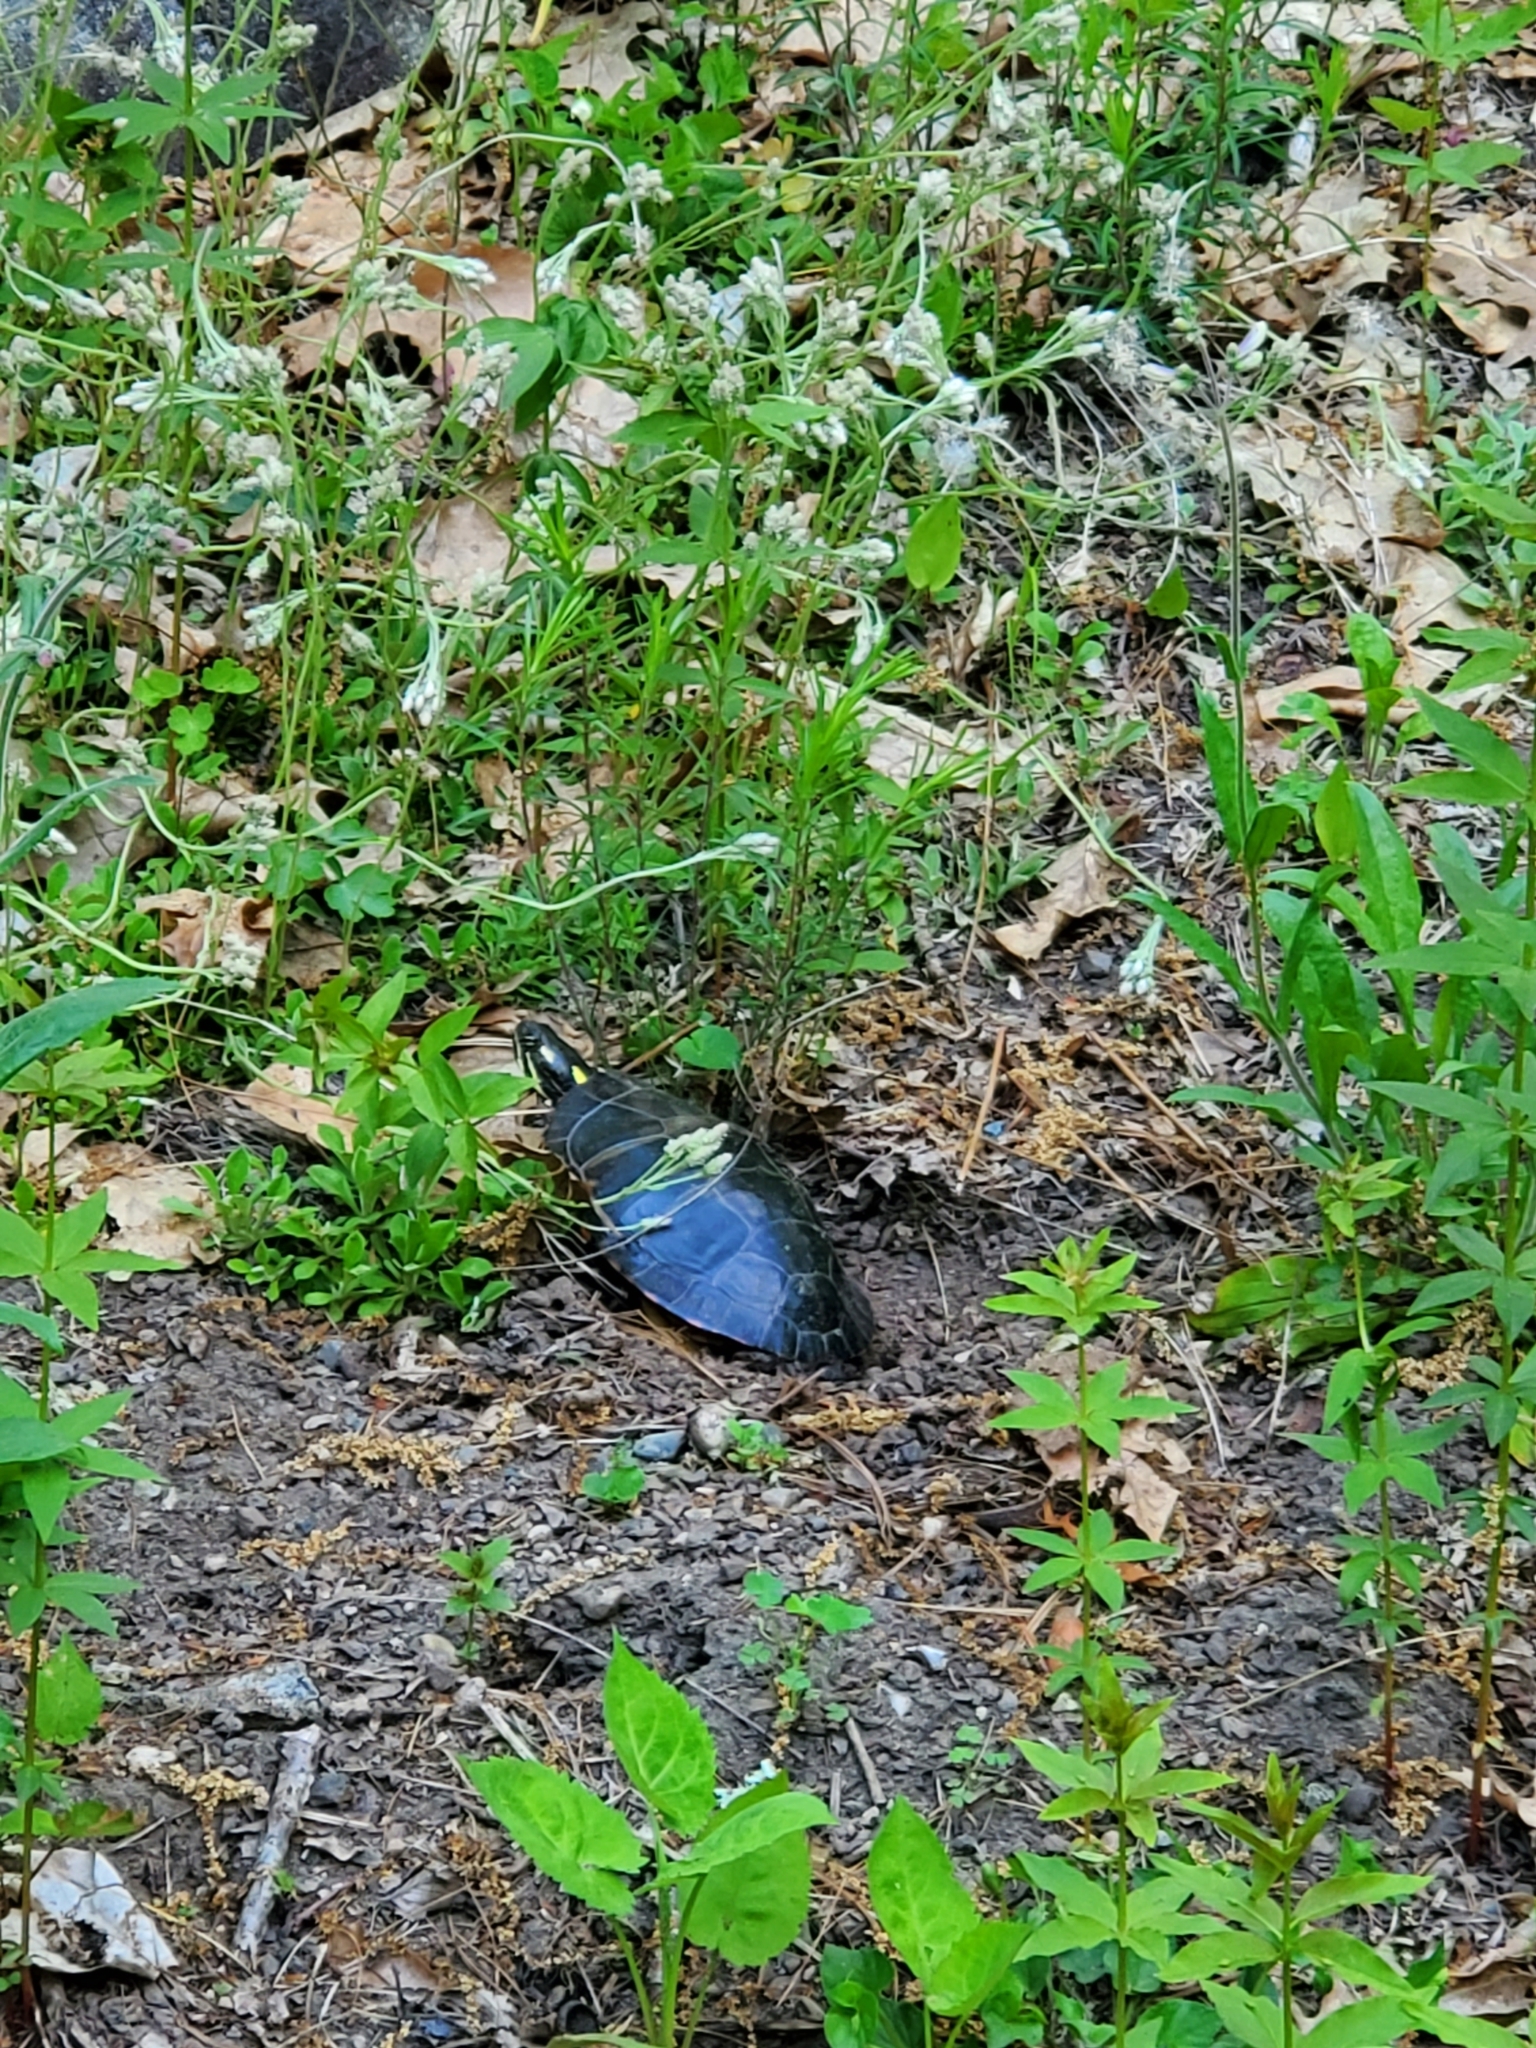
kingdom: Animalia
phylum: Chordata
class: Testudines
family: Emydidae
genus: Chrysemys
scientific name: Chrysemys picta
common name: Painted turtle
